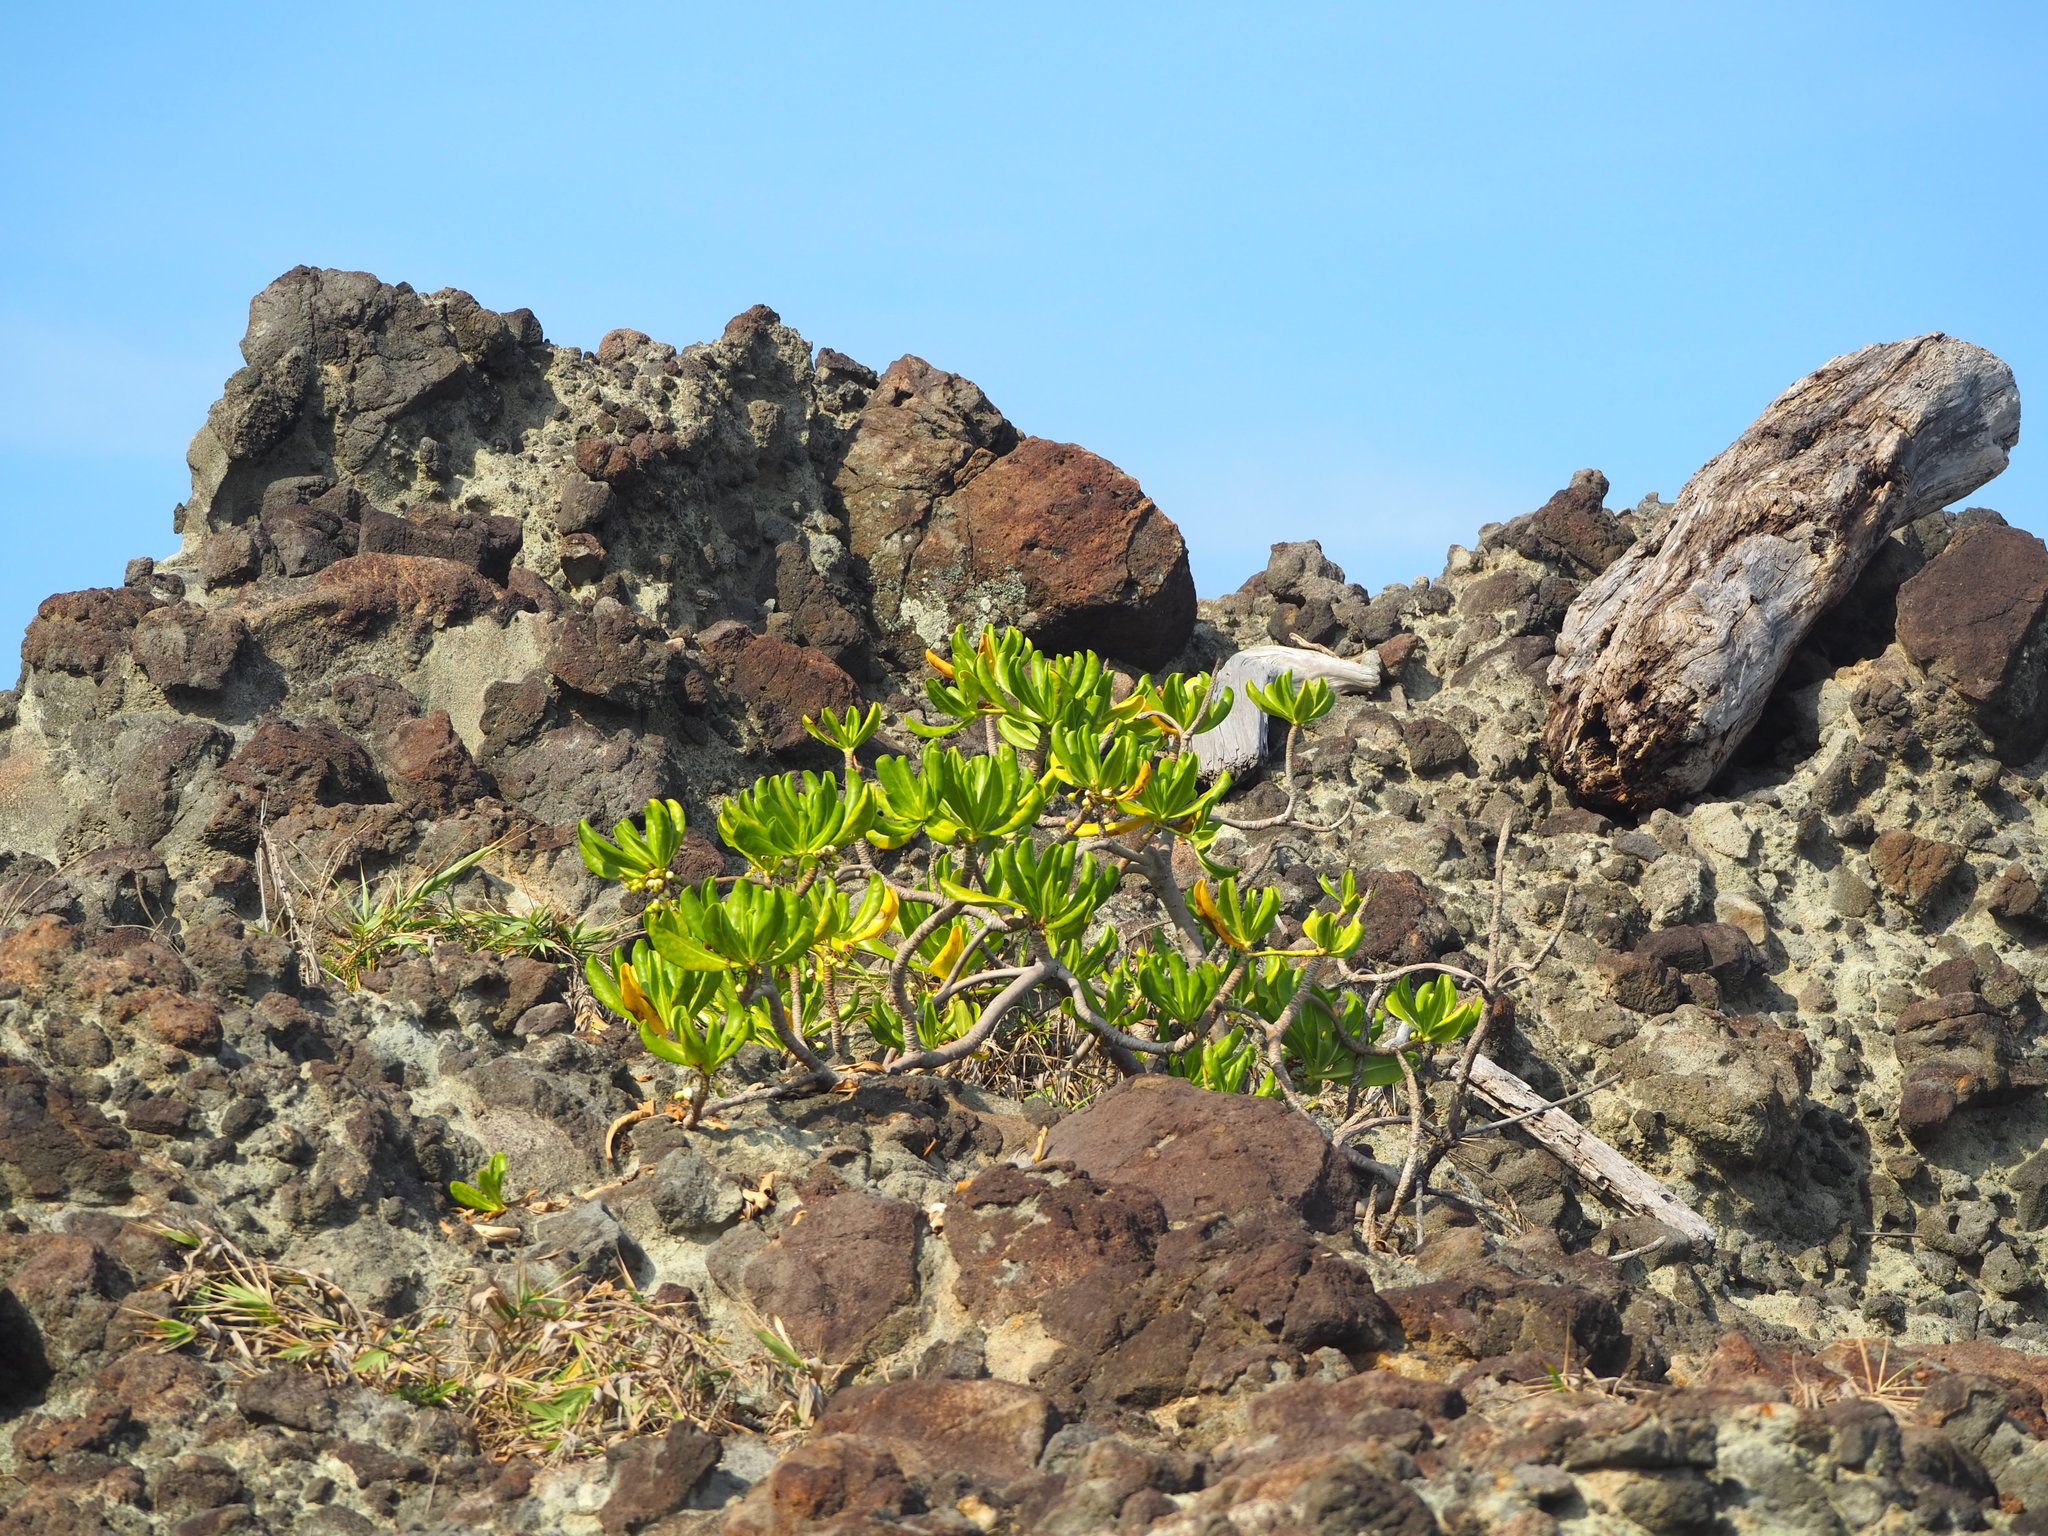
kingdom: Plantae
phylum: Tracheophyta
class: Magnoliopsida
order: Asterales
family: Goodeniaceae
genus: Scaevola
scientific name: Scaevola taccada
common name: Sea lettucetree
